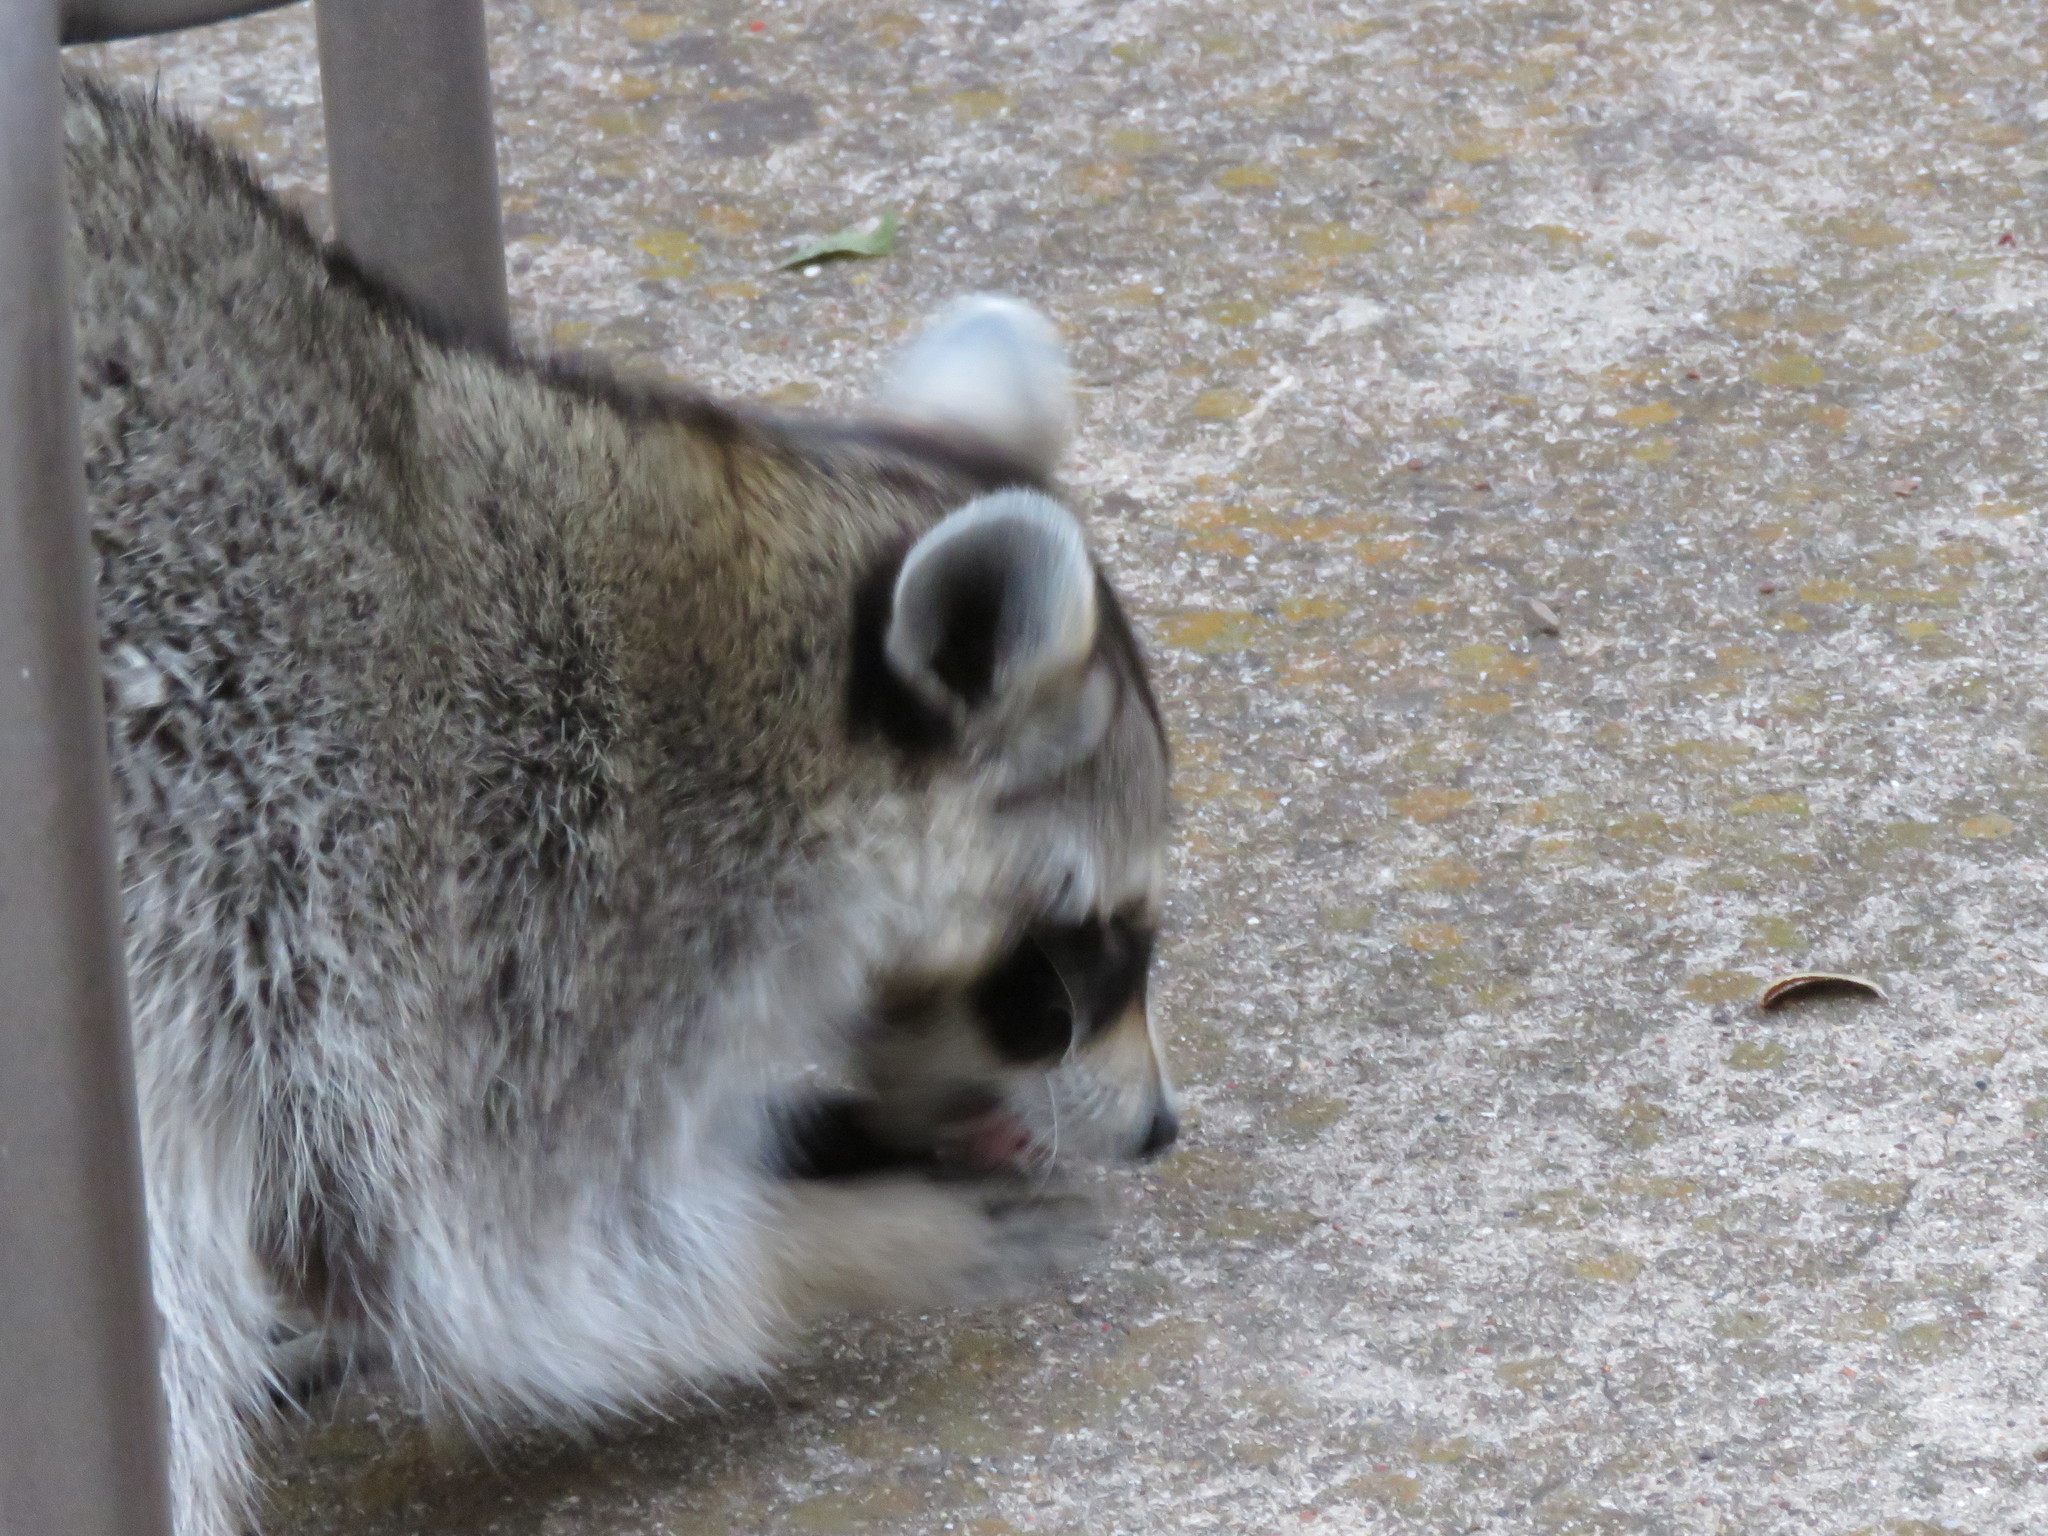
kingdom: Animalia
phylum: Chordata
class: Mammalia
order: Carnivora
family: Procyonidae
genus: Procyon
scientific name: Procyon lotor
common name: Raccoon
